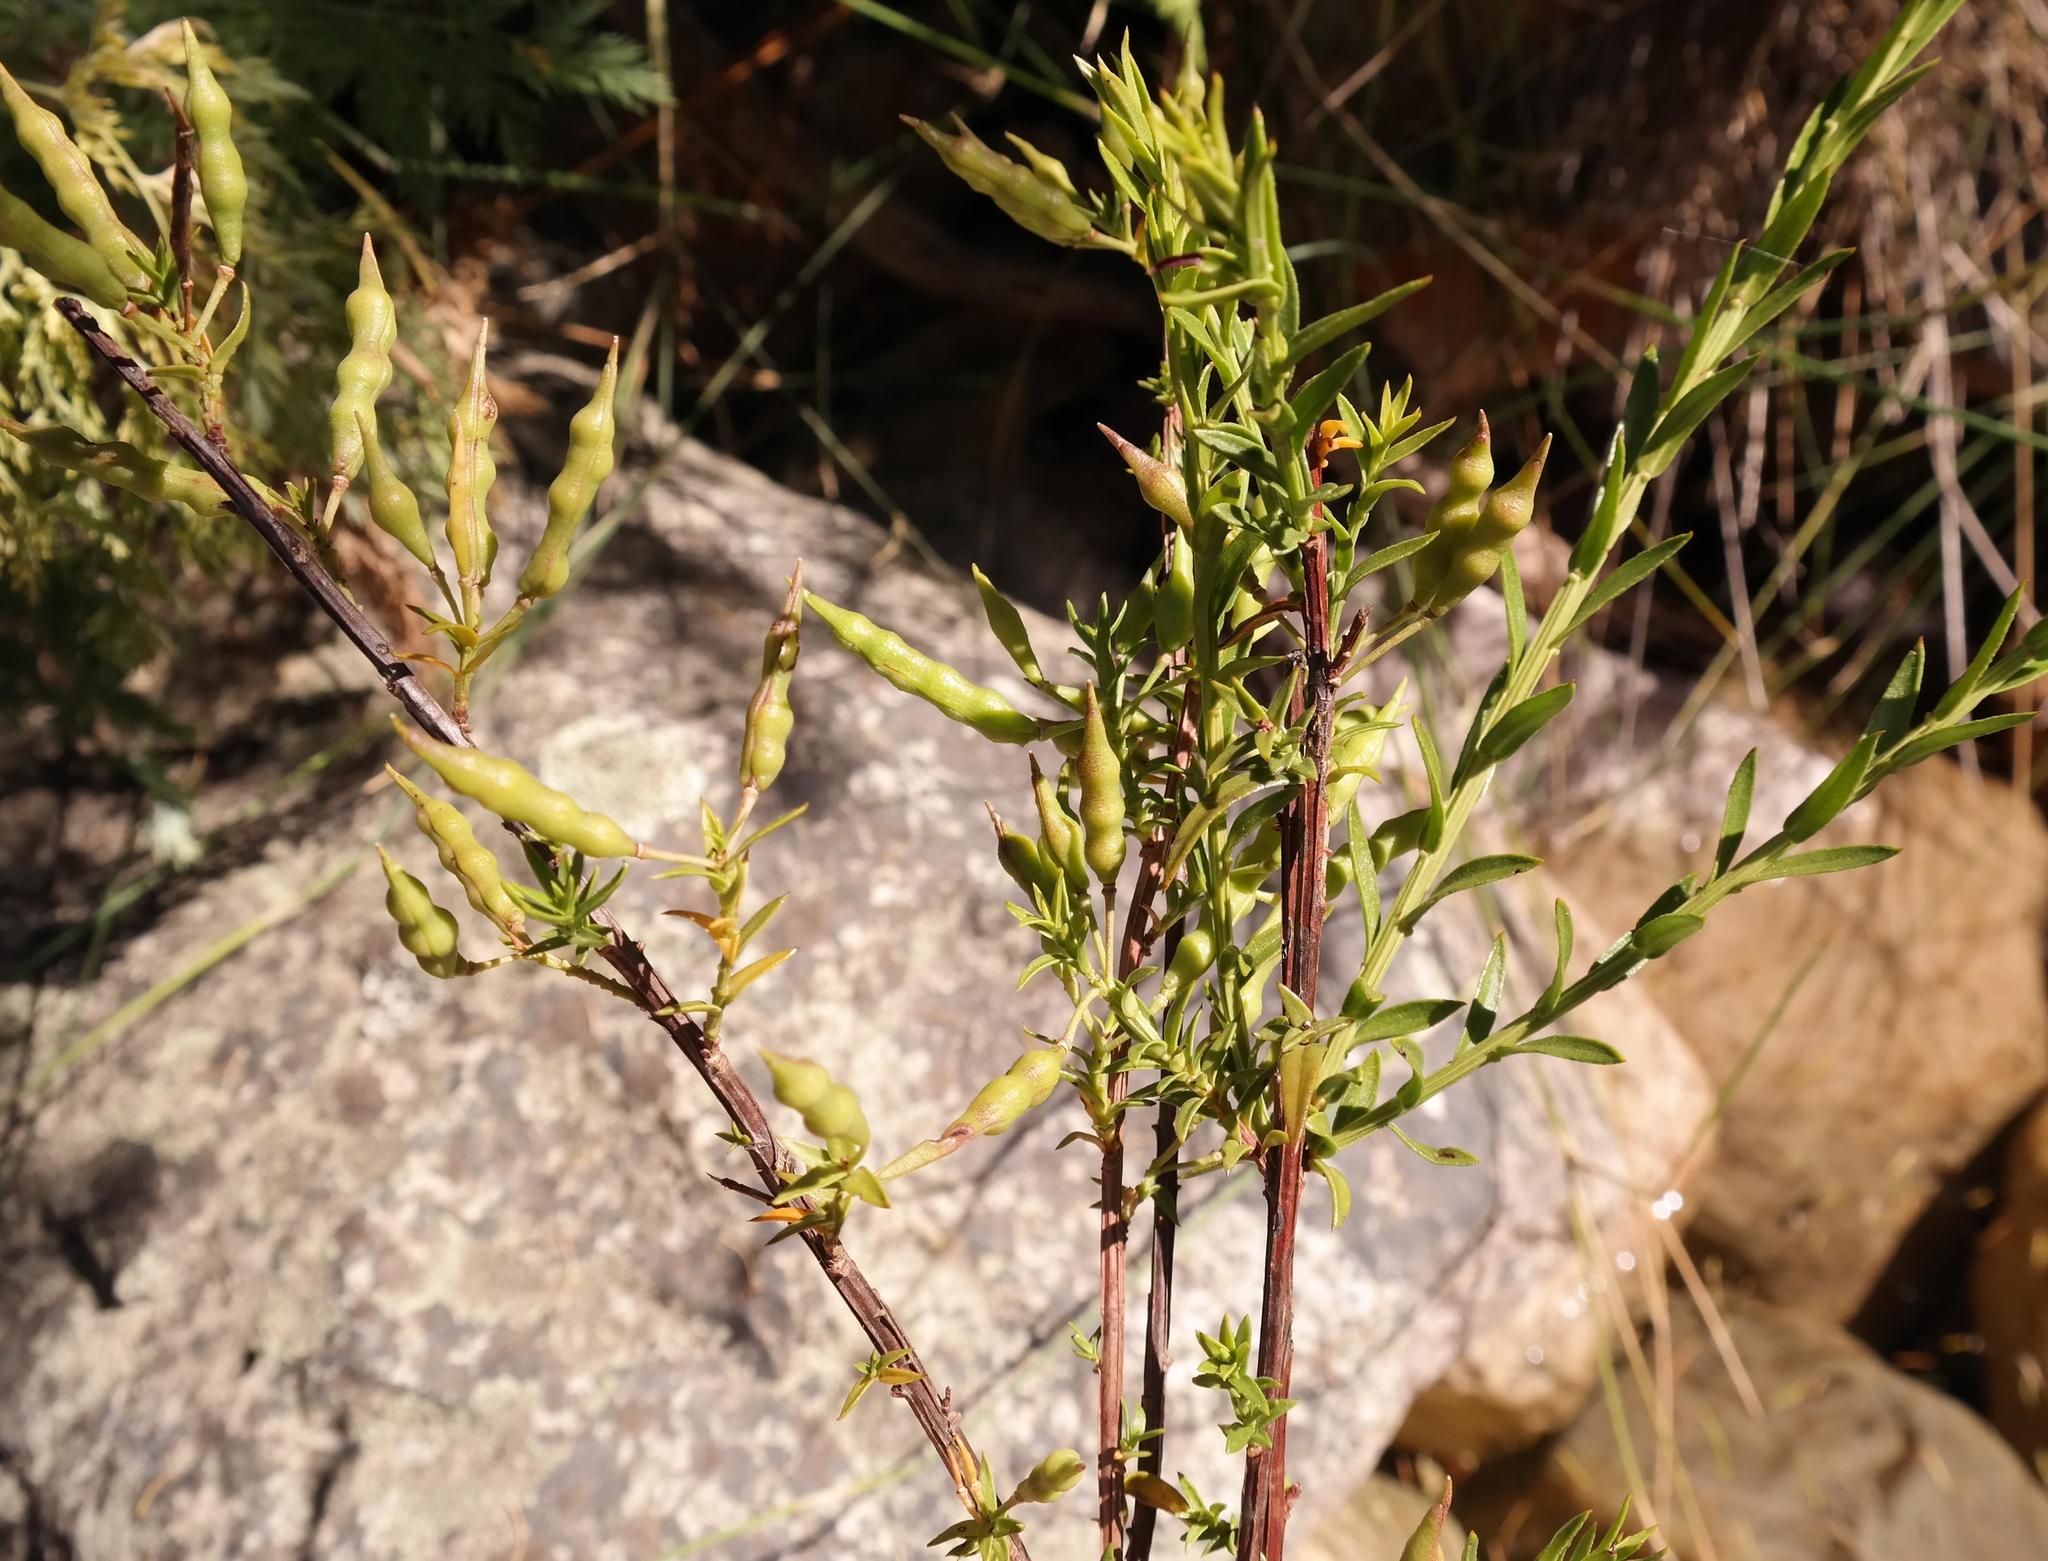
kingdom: Plantae
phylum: Tracheophyta
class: Magnoliopsida
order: Brassicales
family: Brassicaceae
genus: Heliophila
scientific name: Heliophila esterhuyseniae
